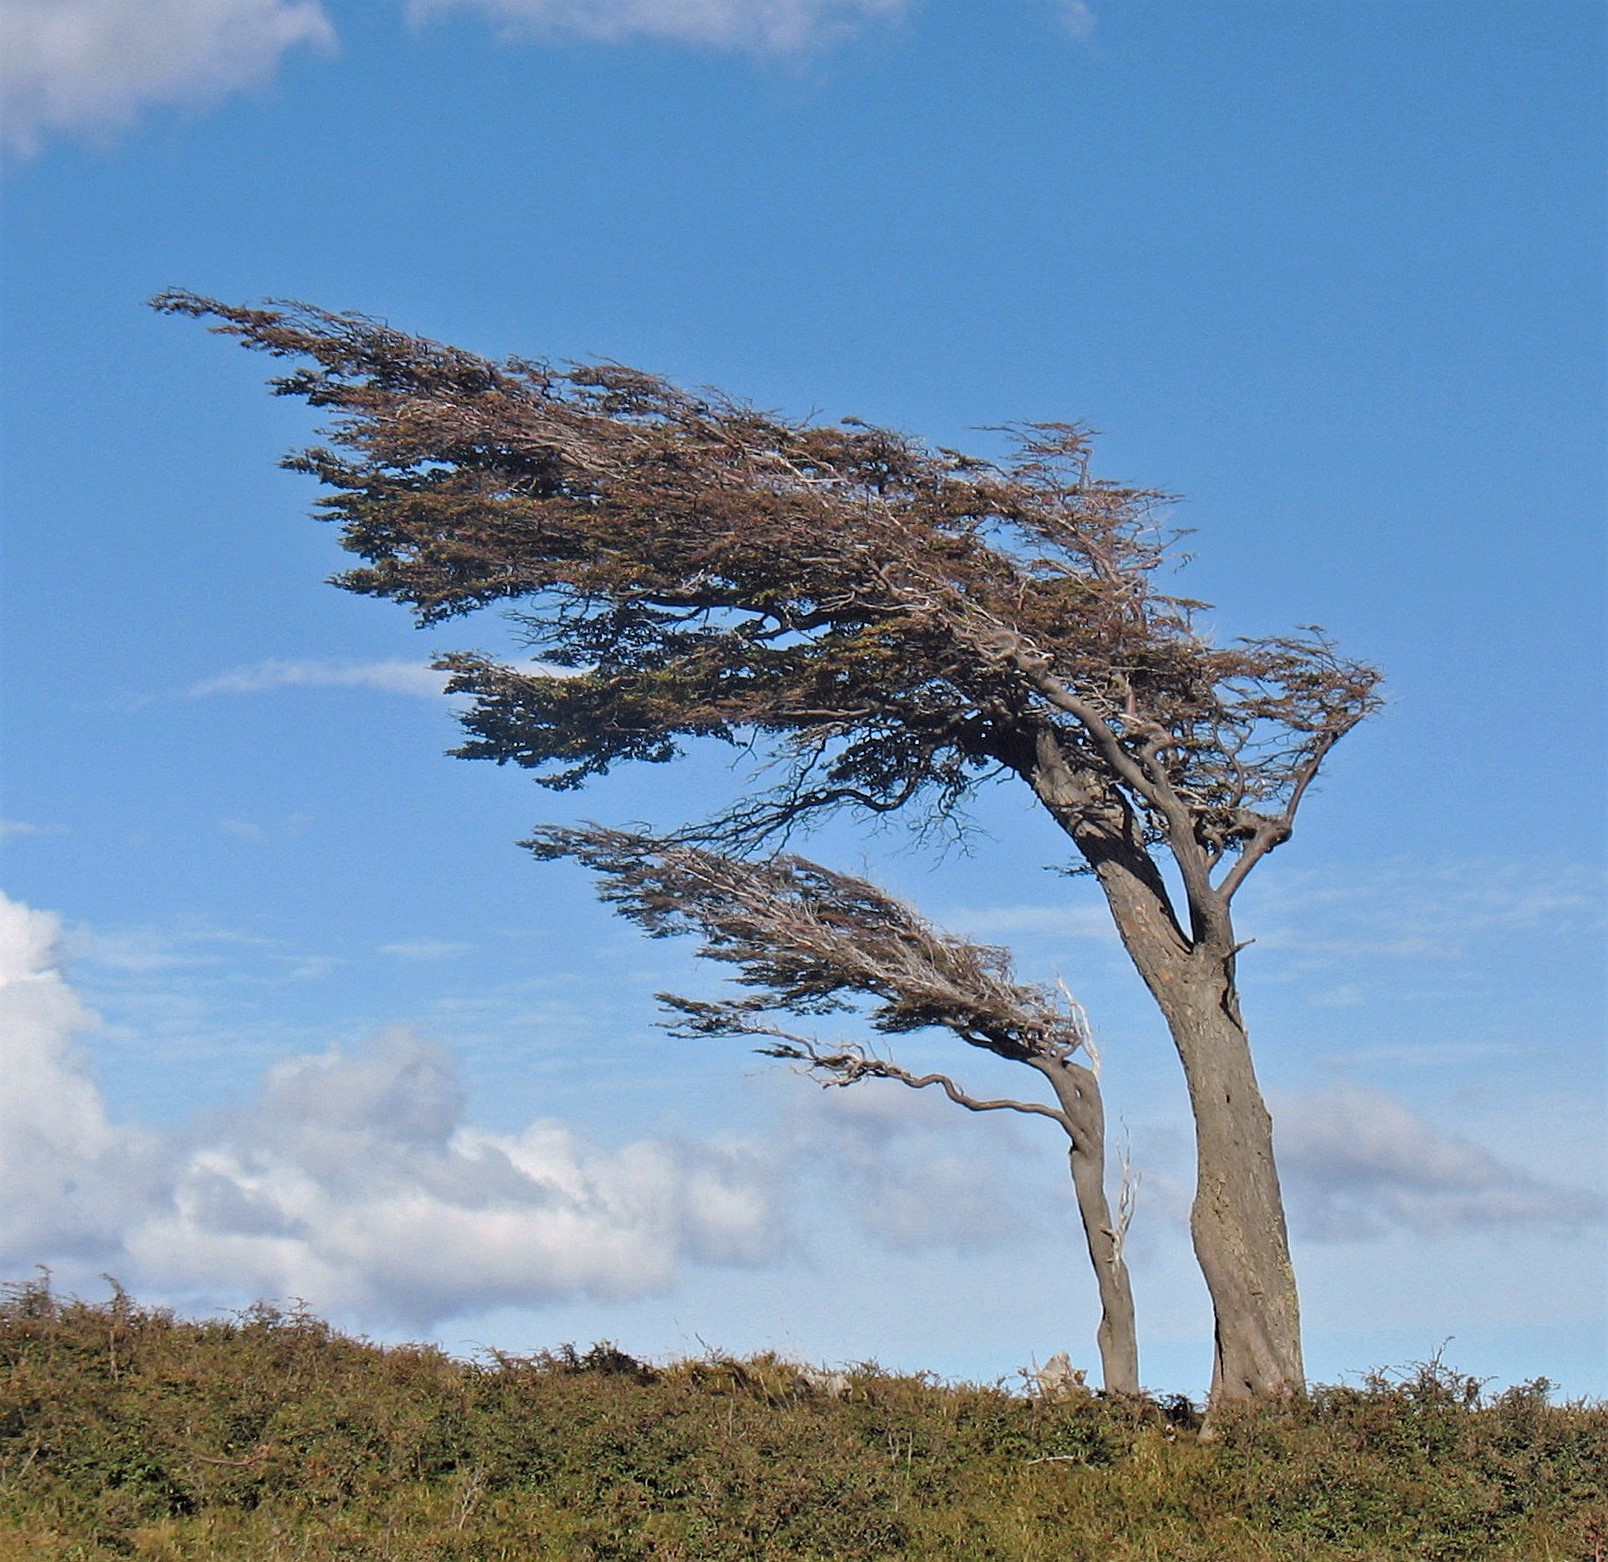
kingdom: Plantae
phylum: Tracheophyta
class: Magnoliopsida
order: Fagales
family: Nothofagaceae
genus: Nothofagus
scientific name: Nothofagus betuloides
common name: Magellan's beech
